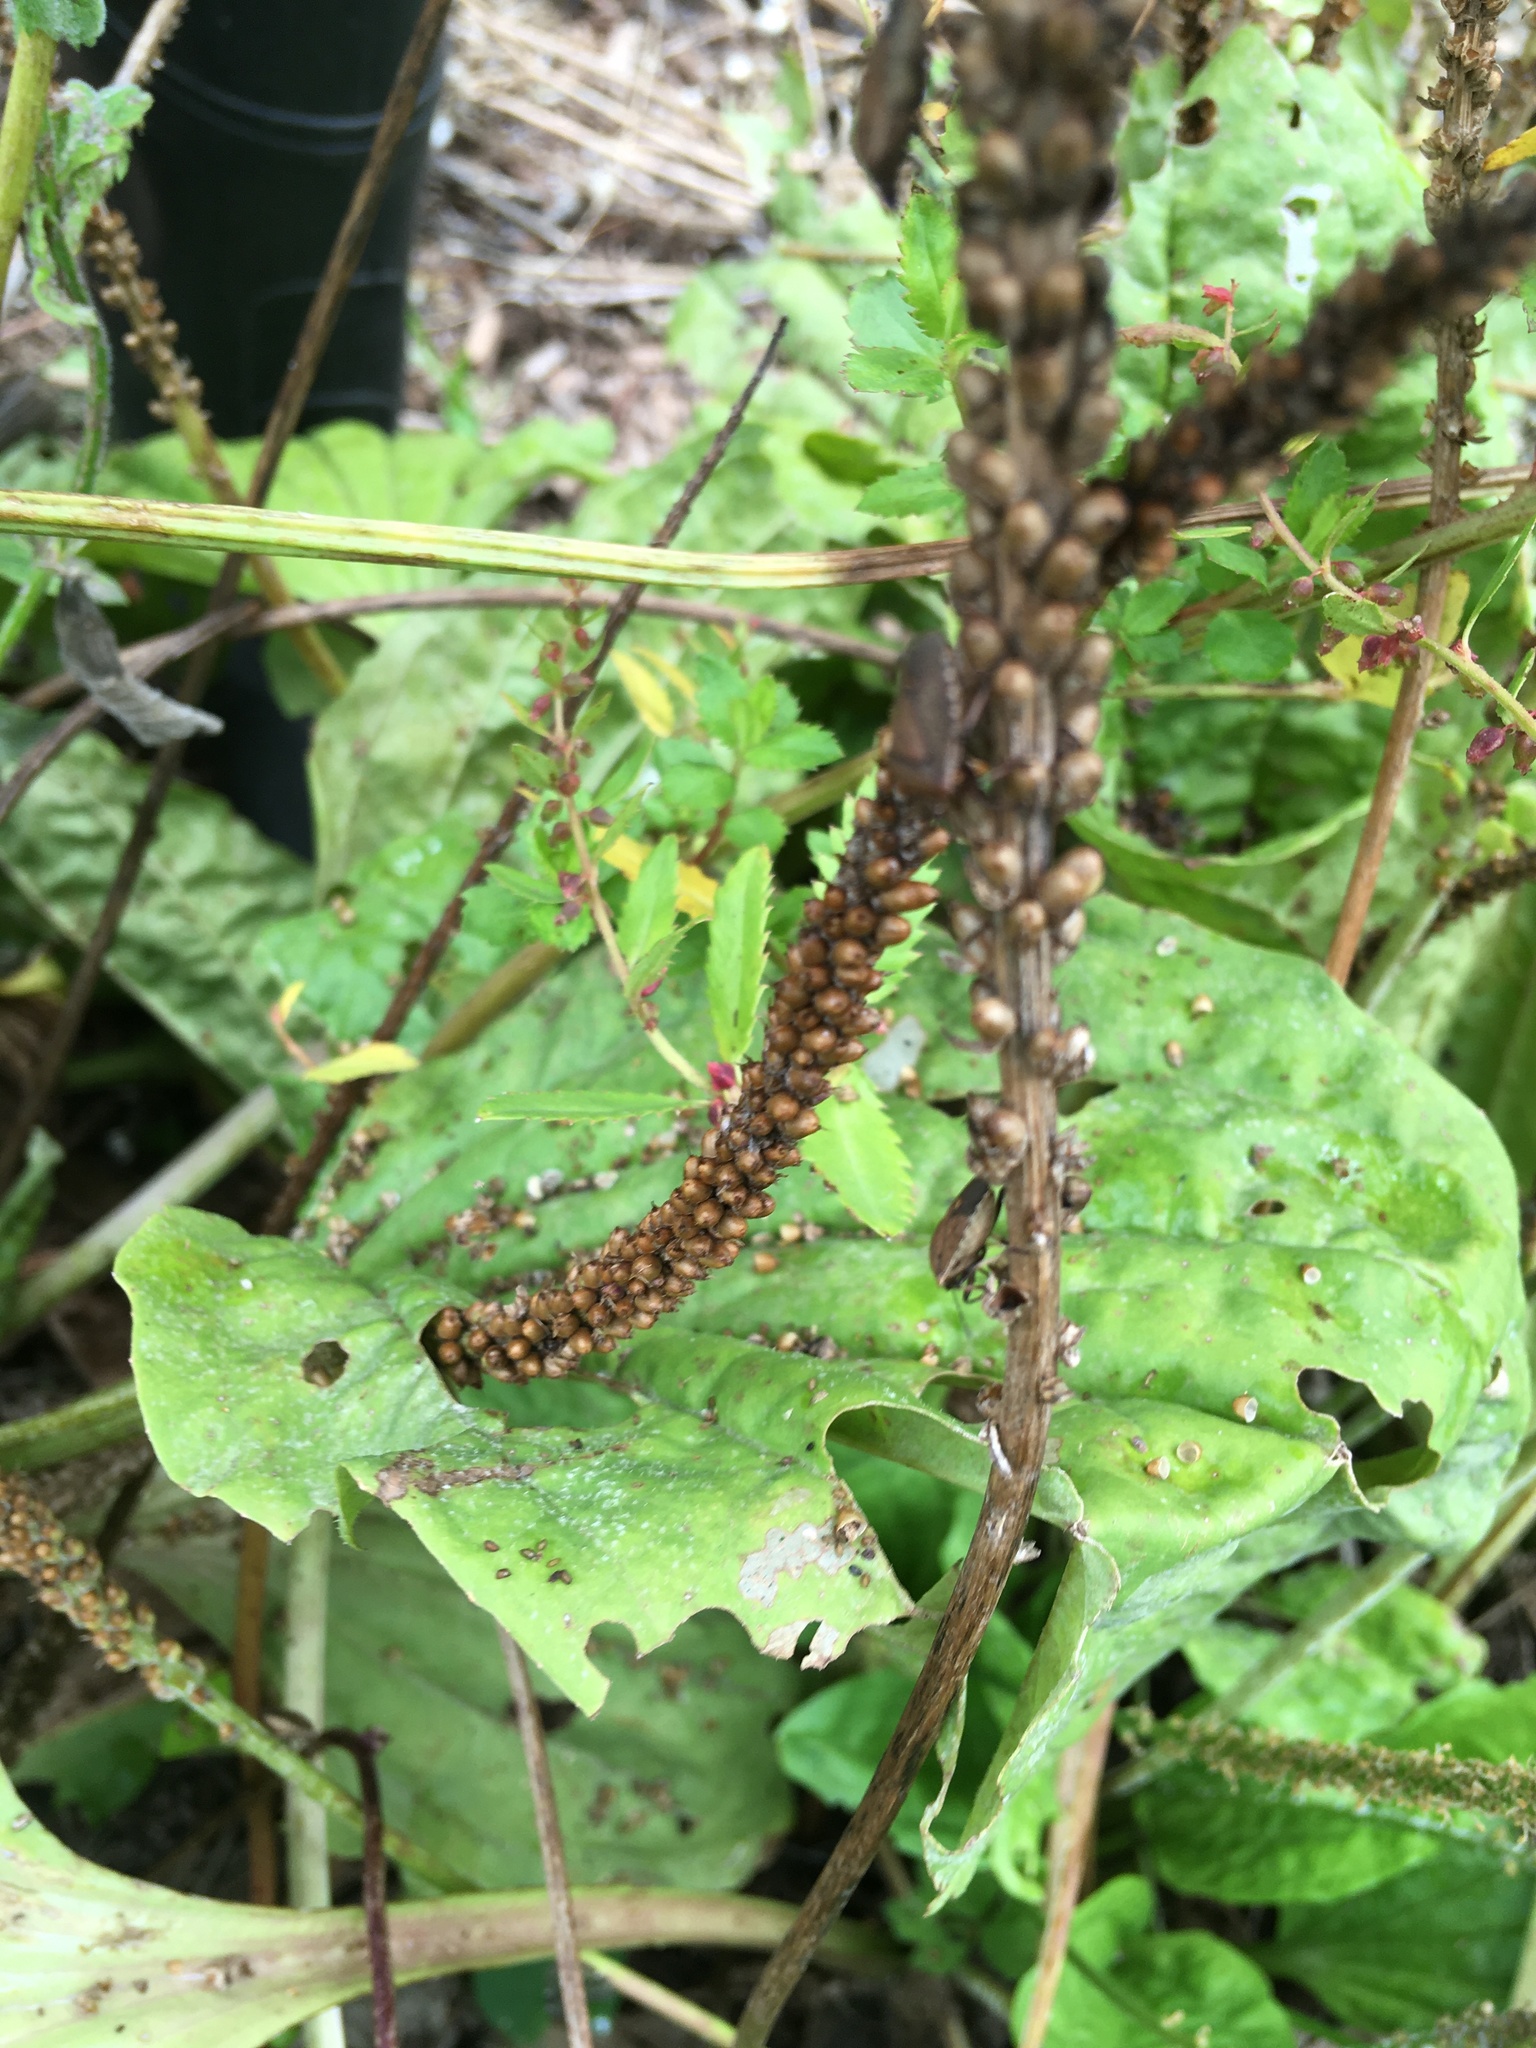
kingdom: Plantae
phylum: Tracheophyta
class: Magnoliopsida
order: Lamiales
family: Plantaginaceae
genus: Plantago
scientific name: Plantago major
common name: Common plantain
